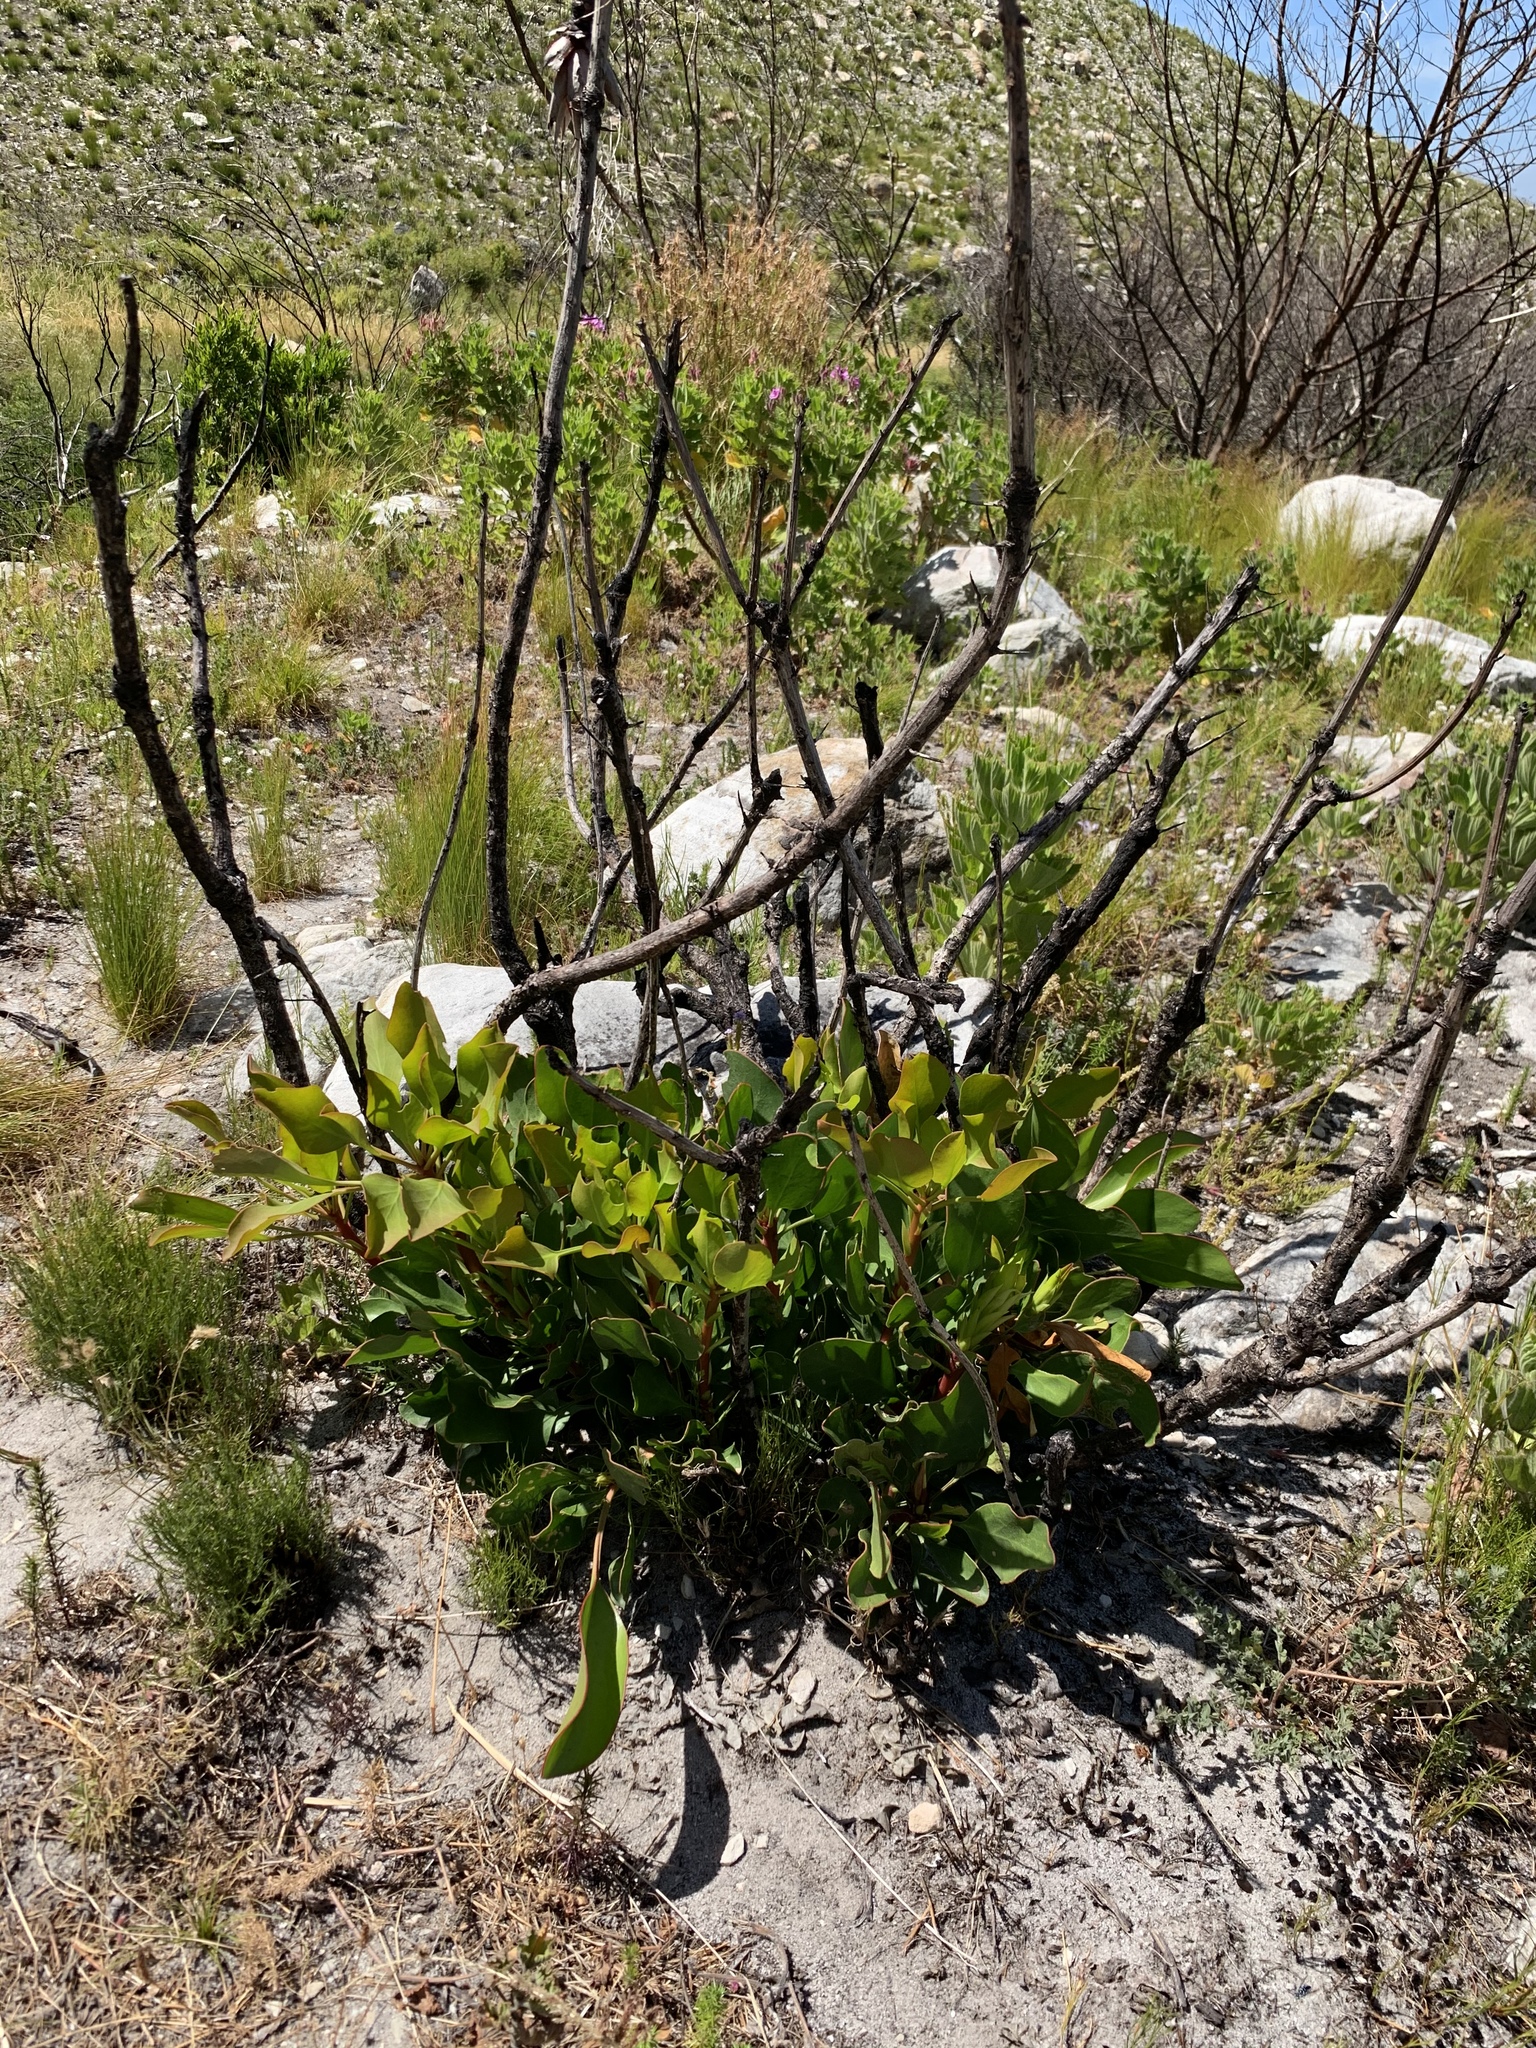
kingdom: Plantae
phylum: Tracheophyta
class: Magnoliopsida
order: Proteales
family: Proteaceae
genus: Protea
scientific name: Protea cynaroides
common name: King protea
